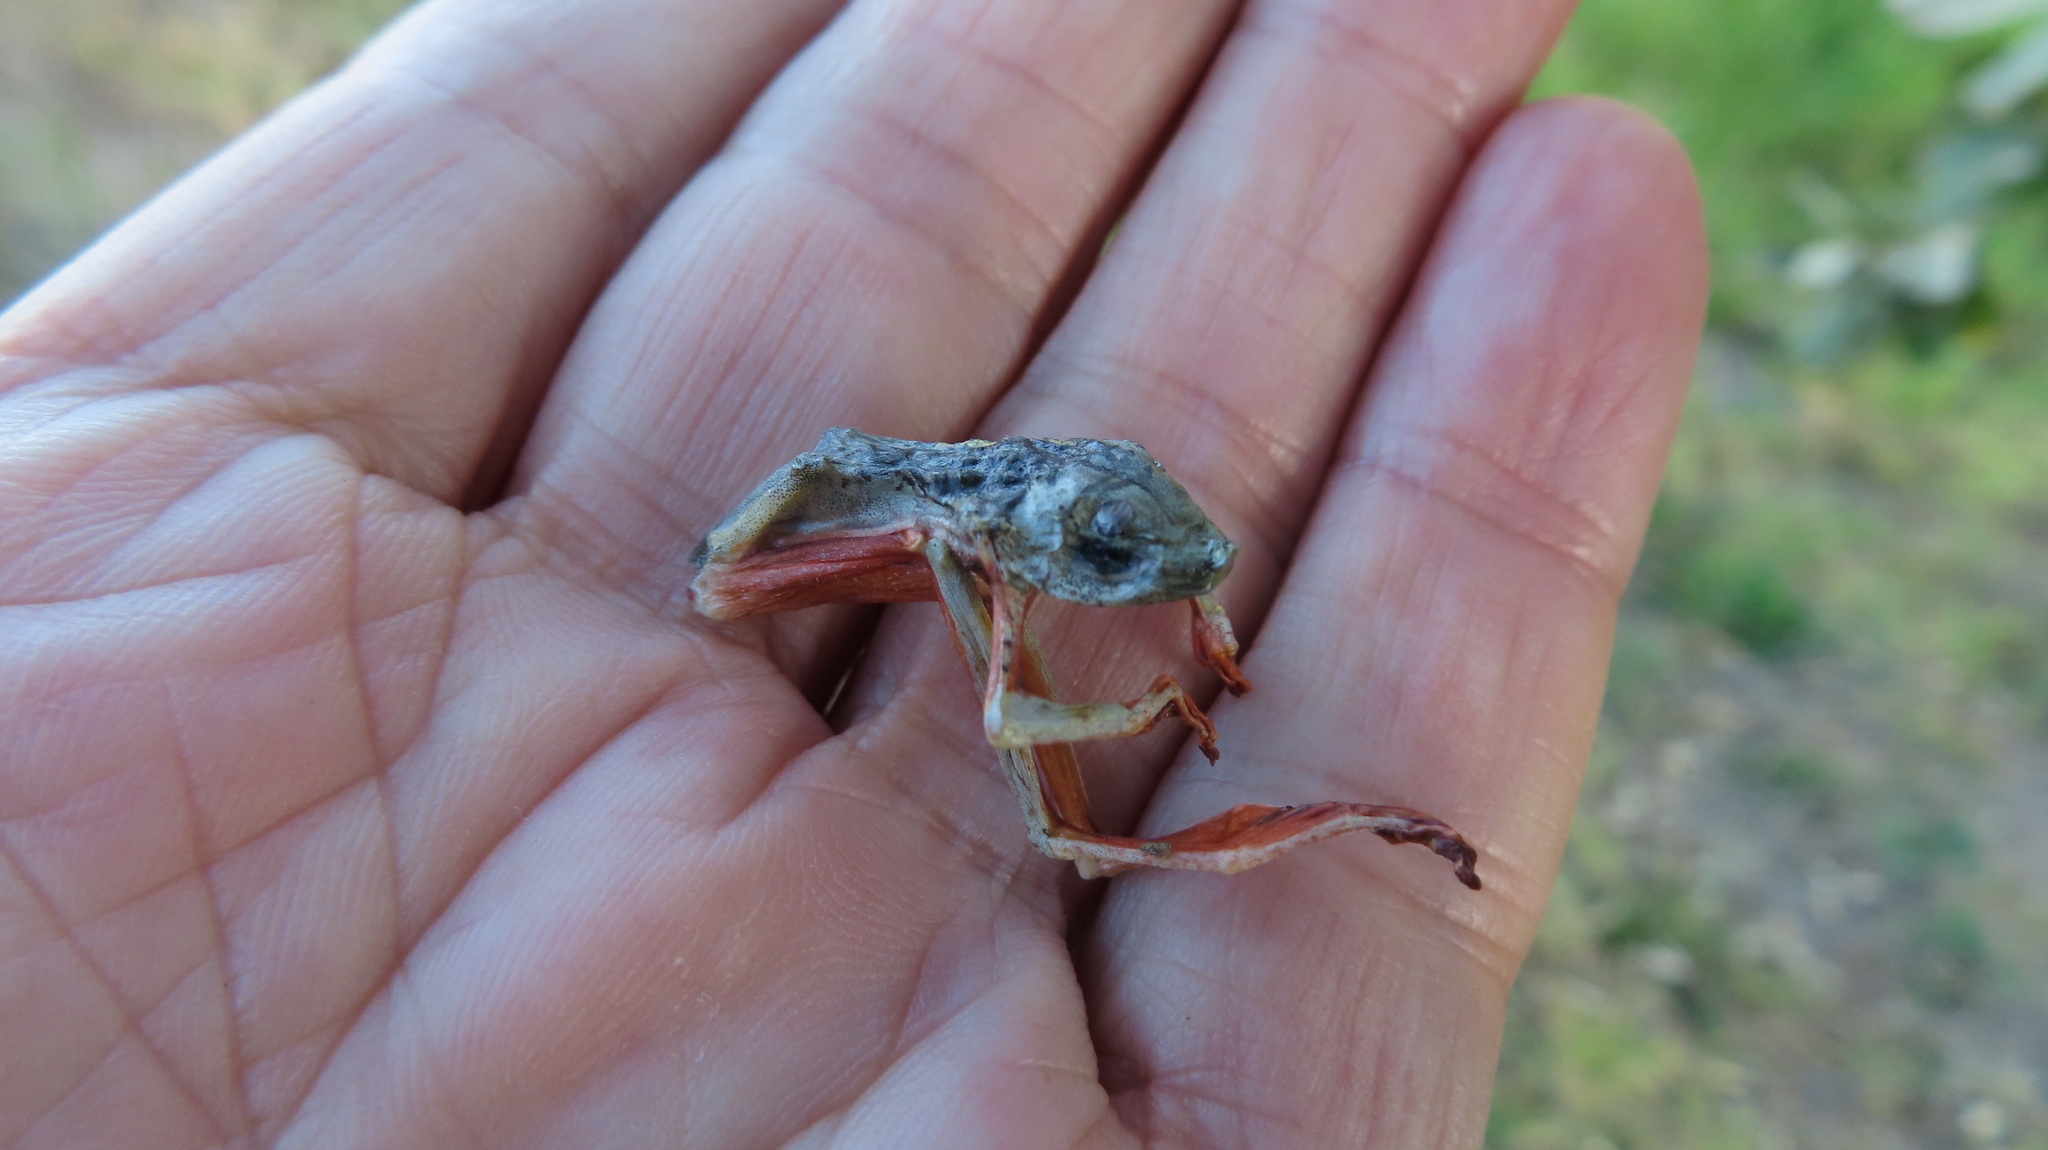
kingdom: Animalia
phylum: Chordata
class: Amphibia
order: Anura
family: Hyperoliidae
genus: Hyperolius
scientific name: Hyperolius marmoratus
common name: Painted reed frog
